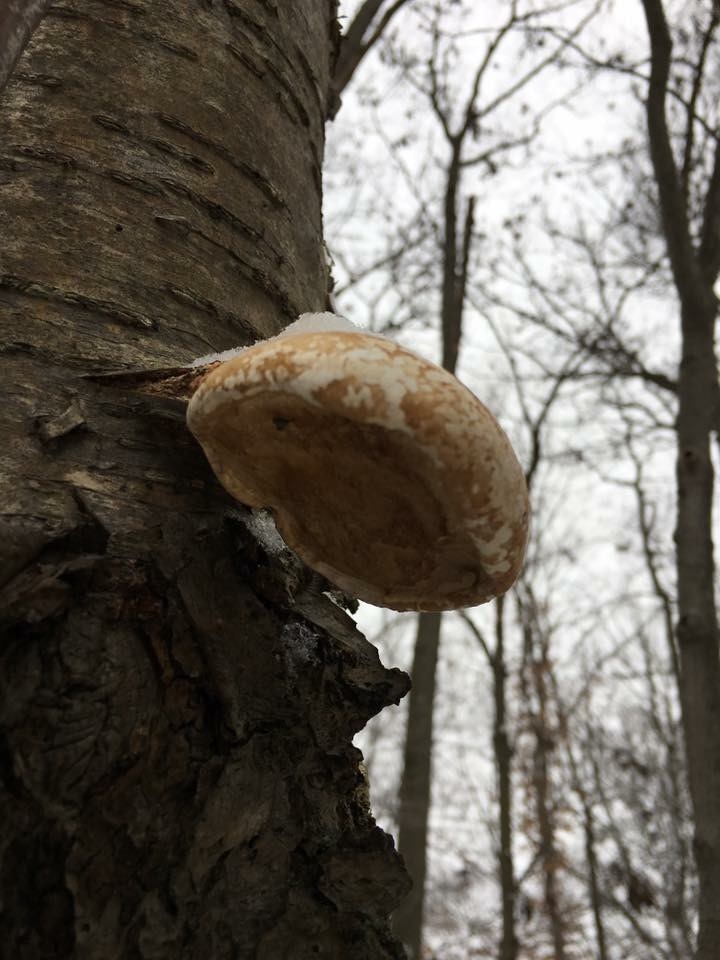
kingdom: Fungi
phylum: Basidiomycota
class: Agaricomycetes
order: Polyporales
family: Fomitopsidaceae
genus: Fomitopsis
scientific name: Fomitopsis betulina
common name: Birch polypore
